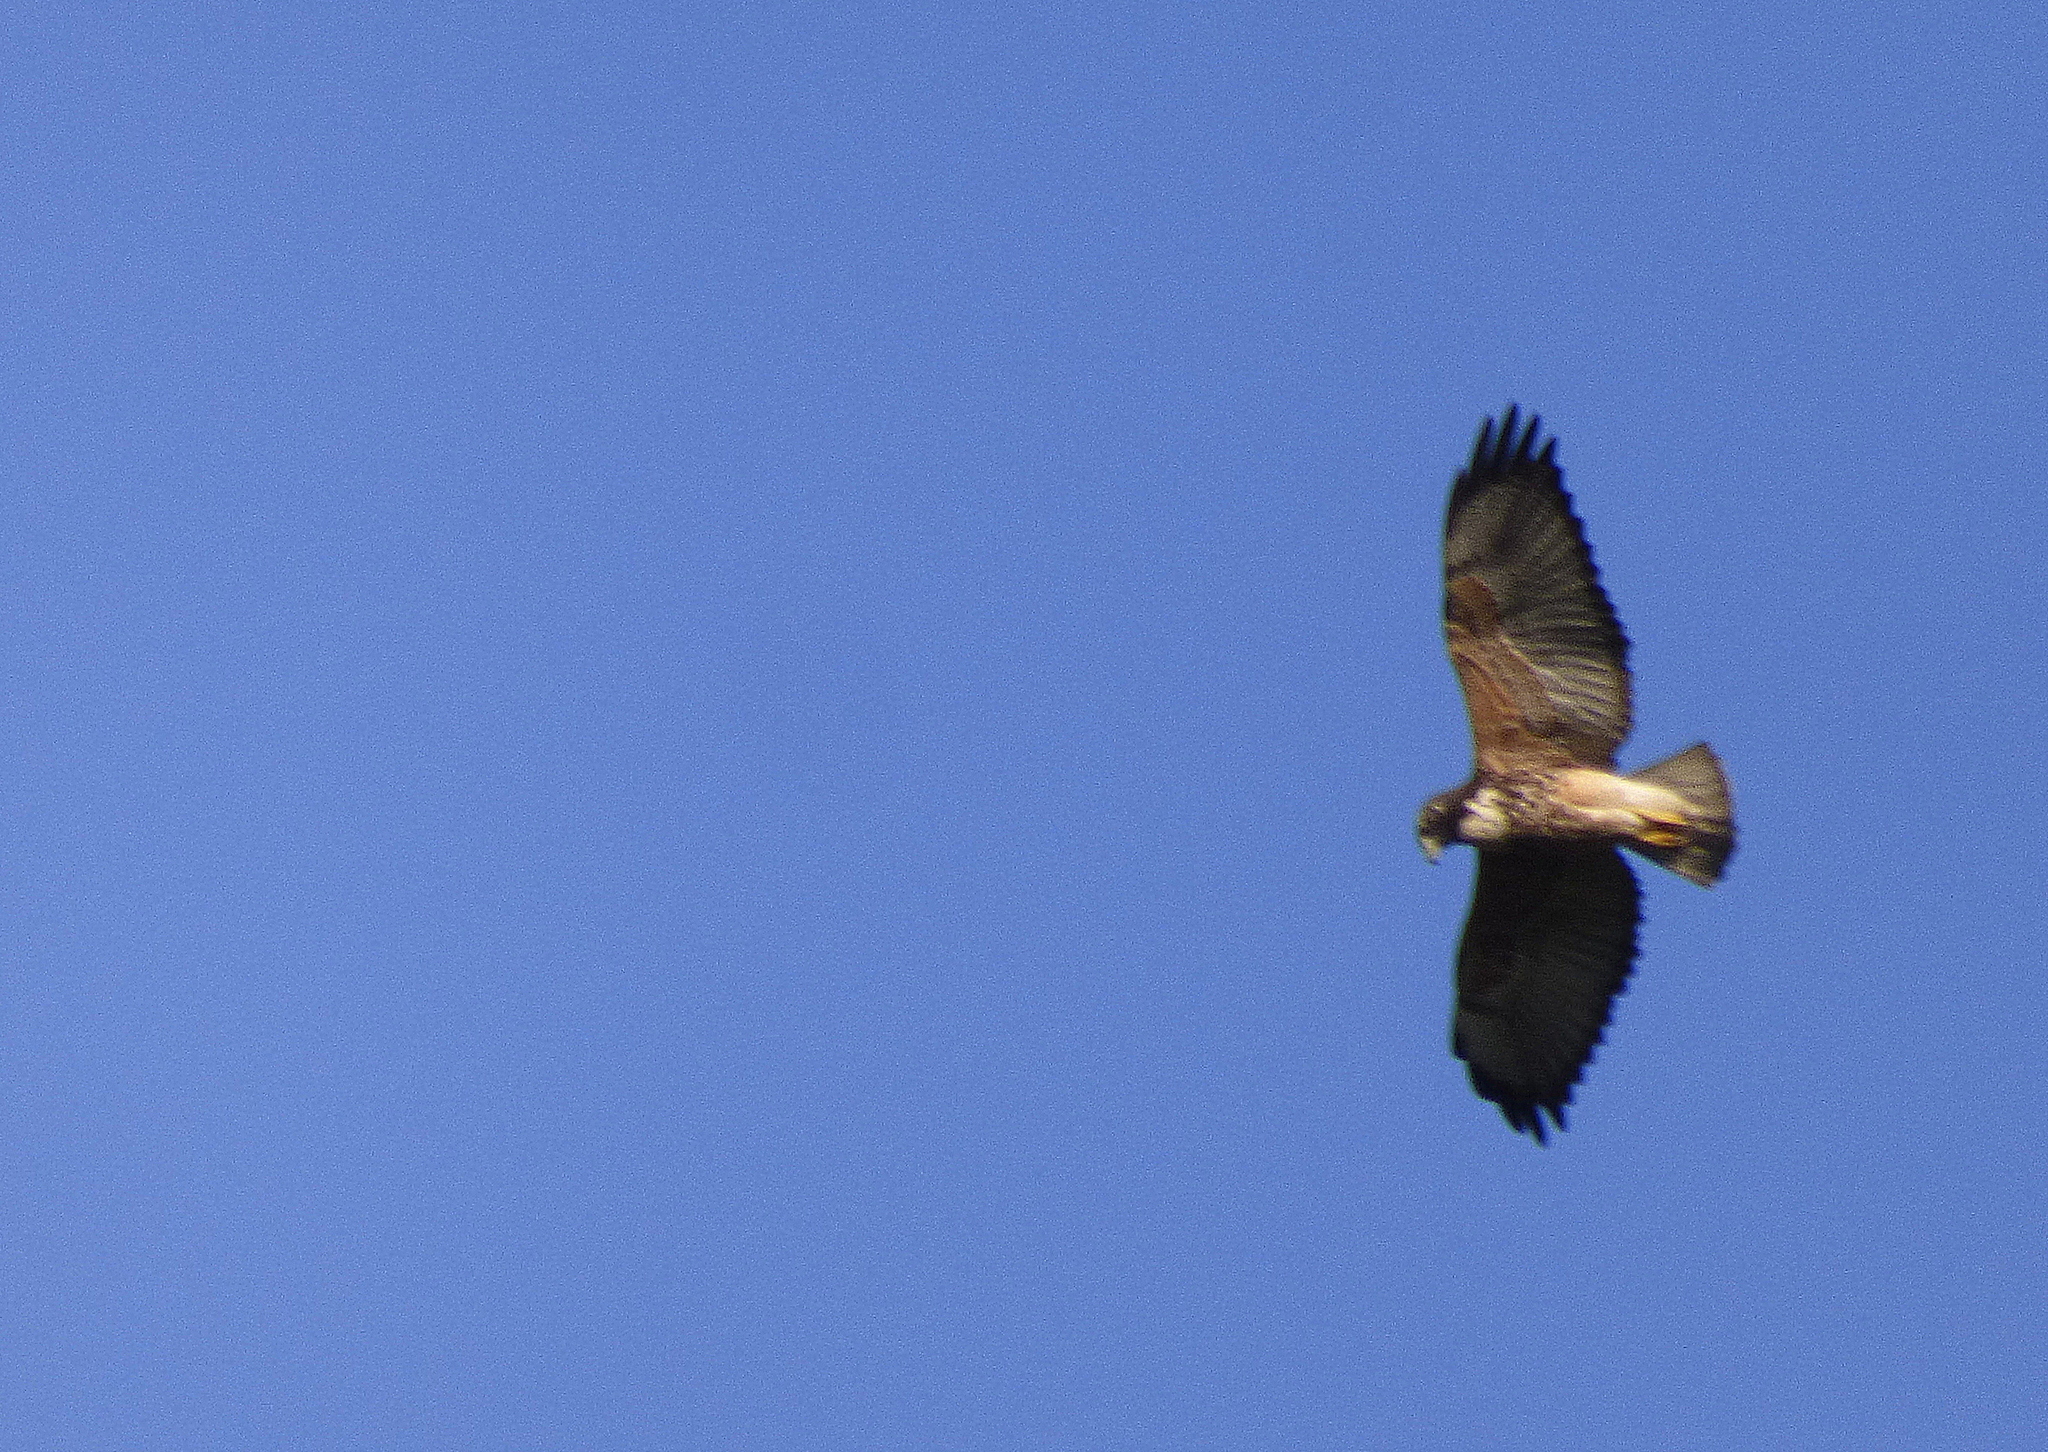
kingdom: Animalia
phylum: Chordata
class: Aves
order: Accipitriformes
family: Accipitridae
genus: Buteo
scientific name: Buteo albicaudatus
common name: White-tailed hawk
